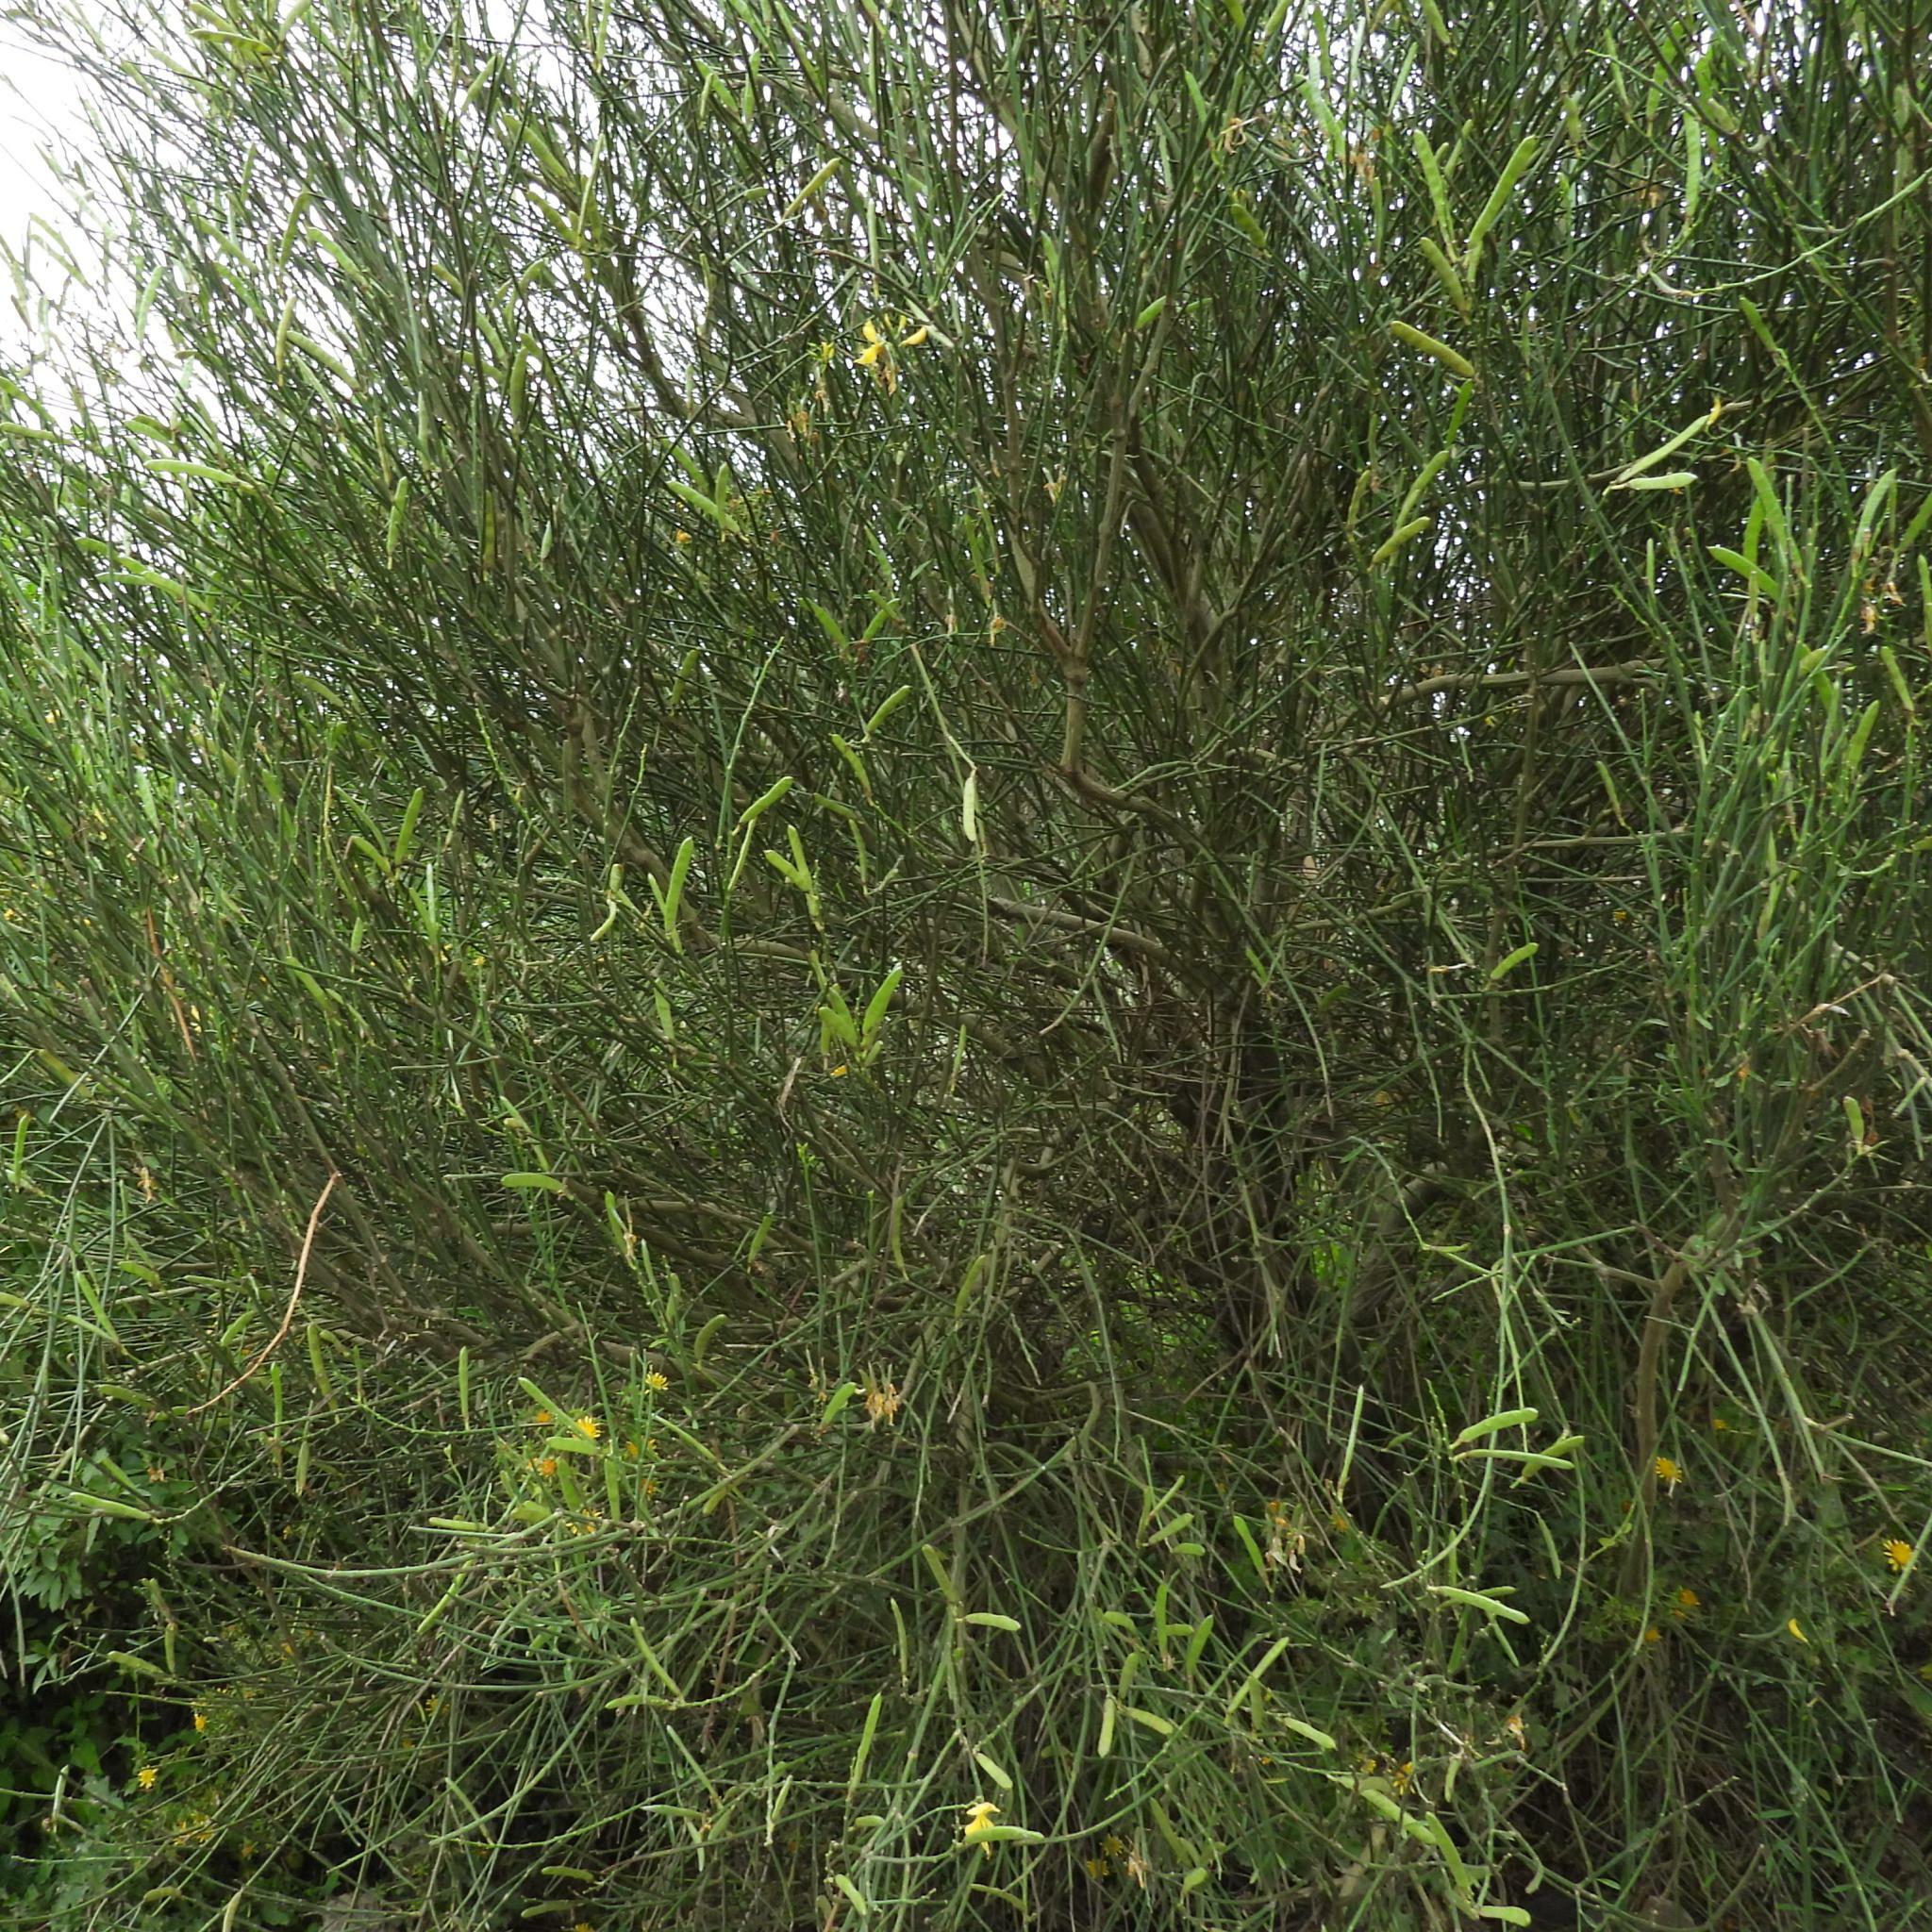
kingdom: Plantae
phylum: Tracheophyta
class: Magnoliopsida
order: Fabales
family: Fabaceae
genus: Spartium
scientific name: Spartium junceum
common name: Spanish broom
